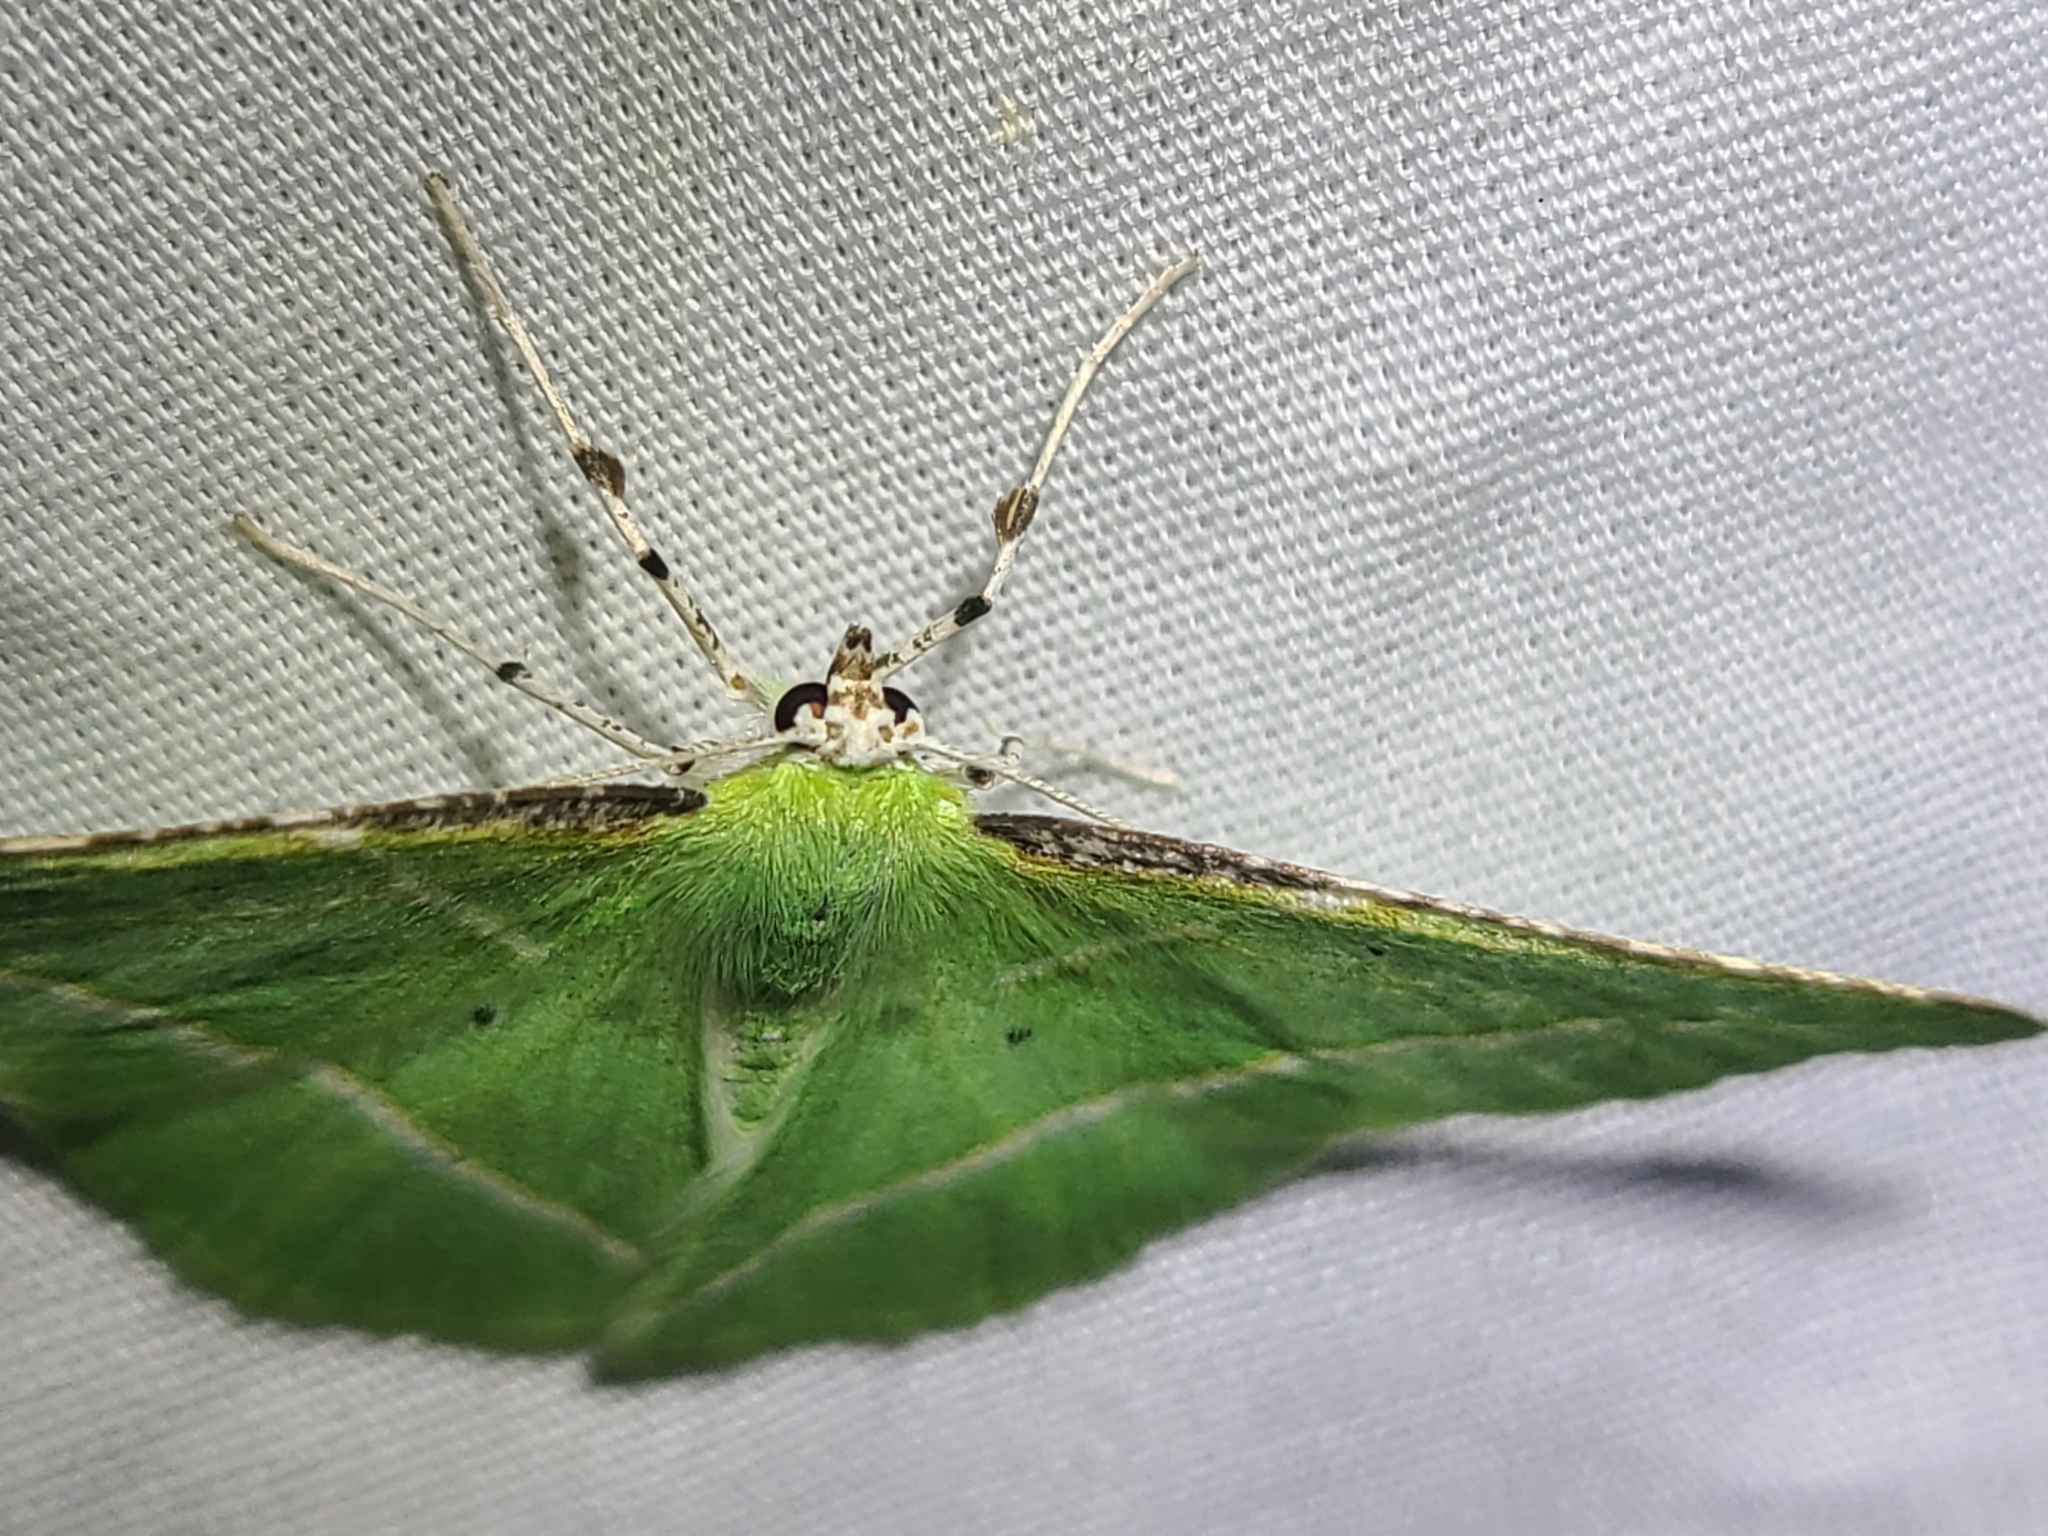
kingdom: Animalia
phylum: Arthropoda
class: Insecta
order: Lepidoptera
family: Geometridae
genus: Dichorda
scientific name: Dichorda illustraria
